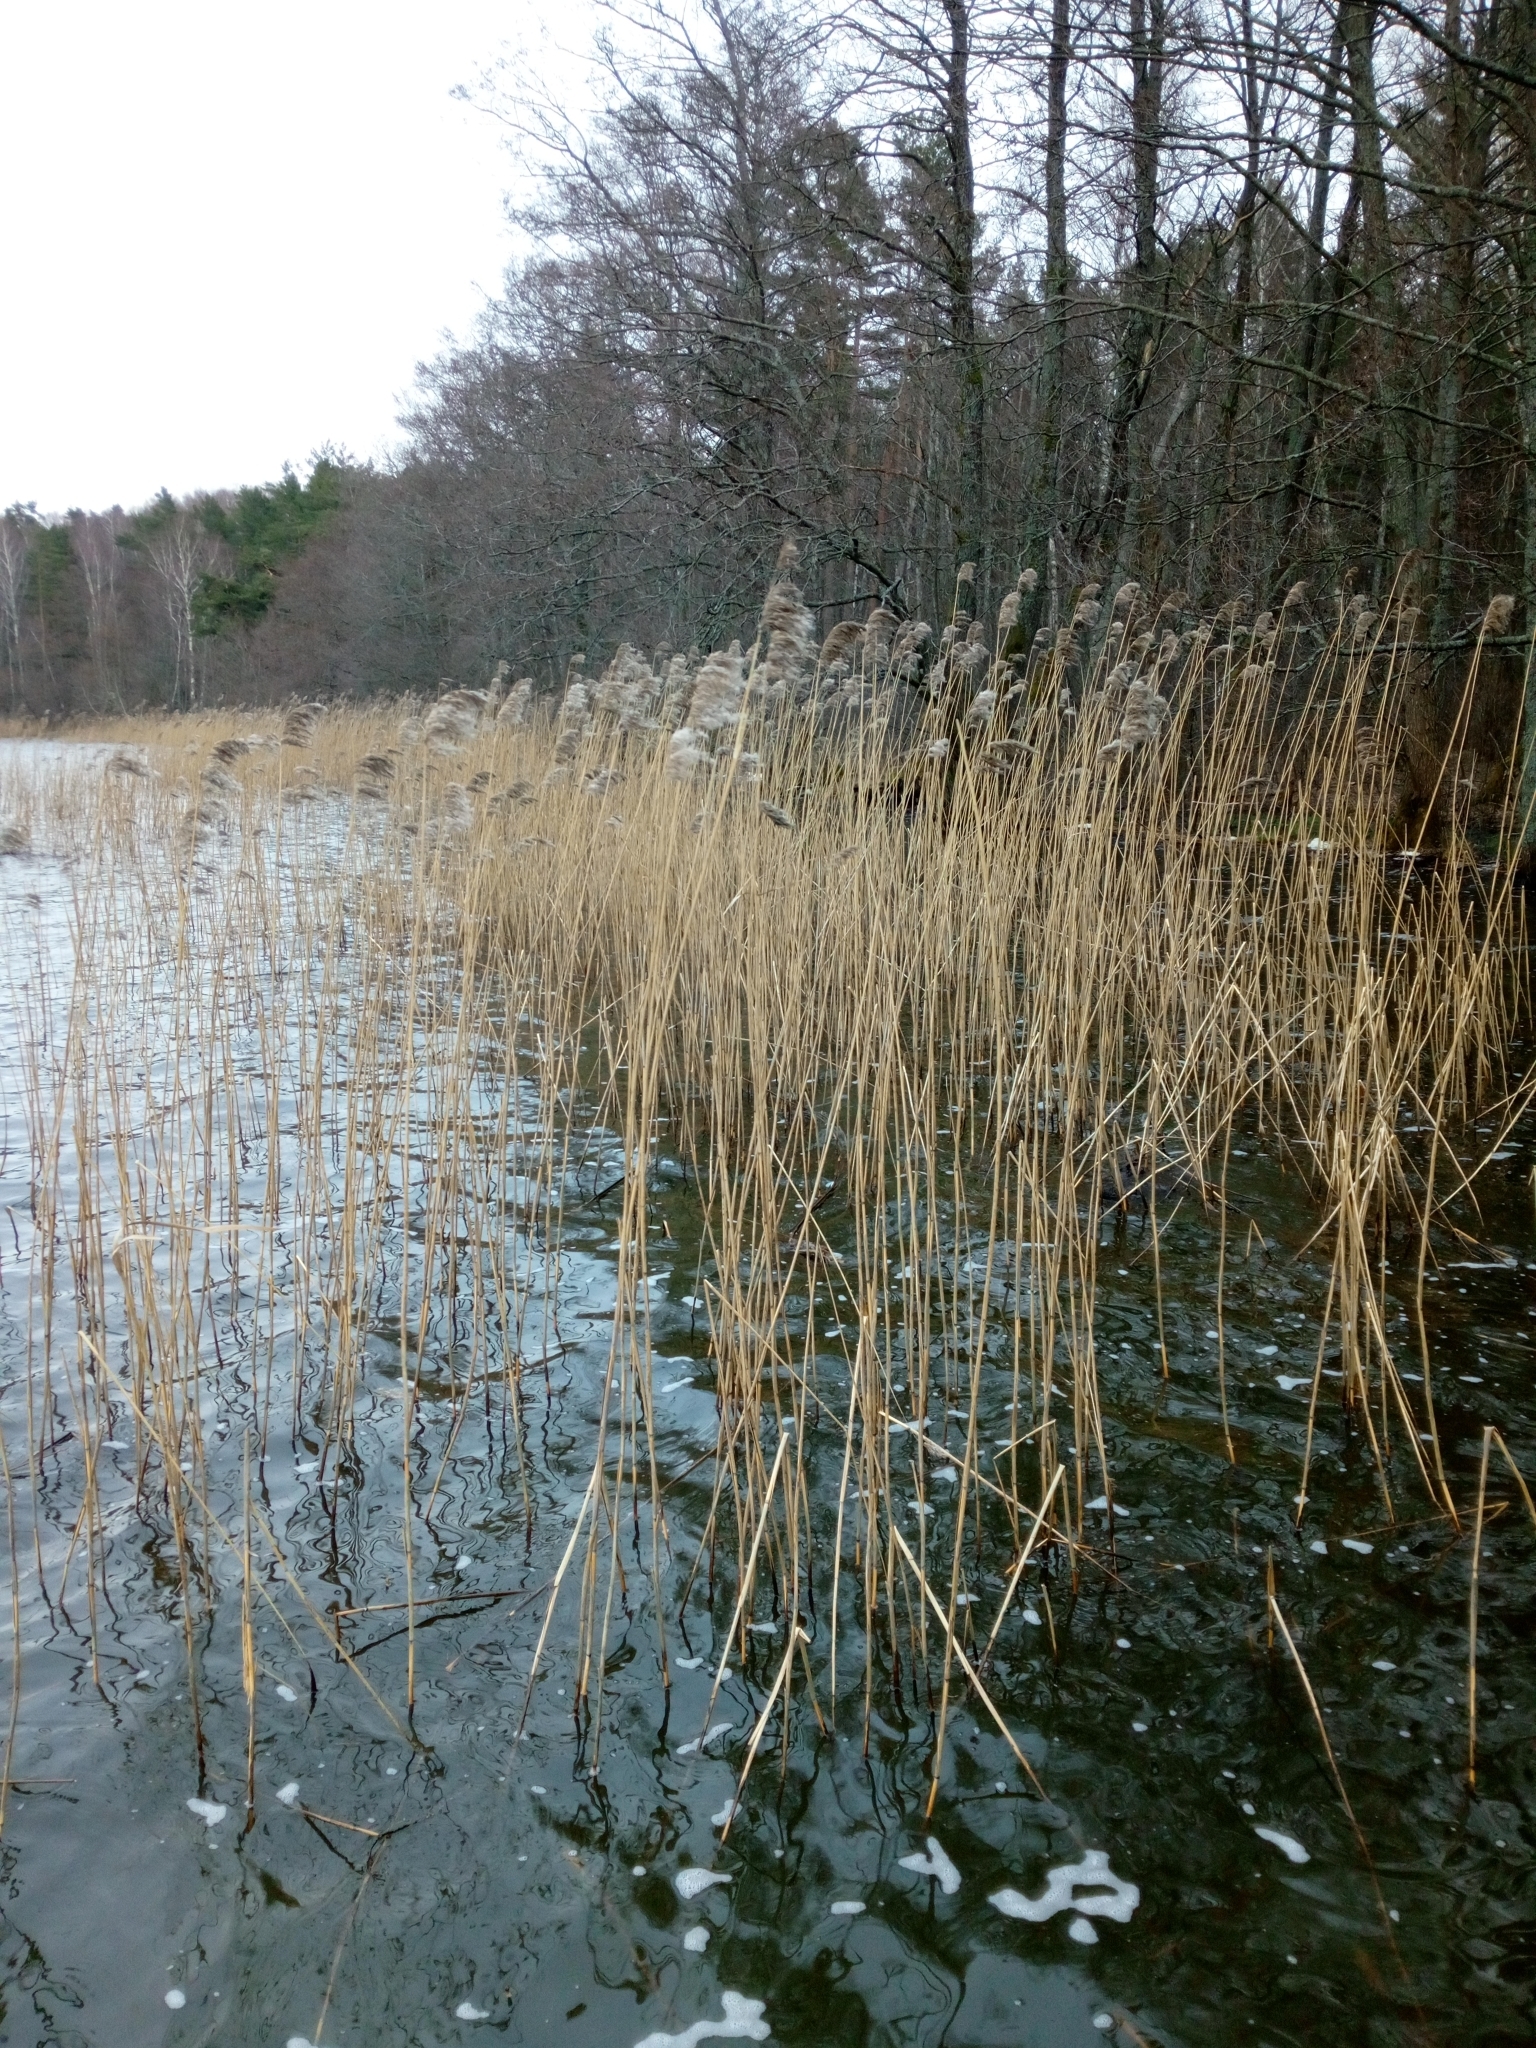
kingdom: Plantae
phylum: Tracheophyta
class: Liliopsida
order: Poales
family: Poaceae
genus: Phragmites
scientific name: Phragmites australis
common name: Common reed
